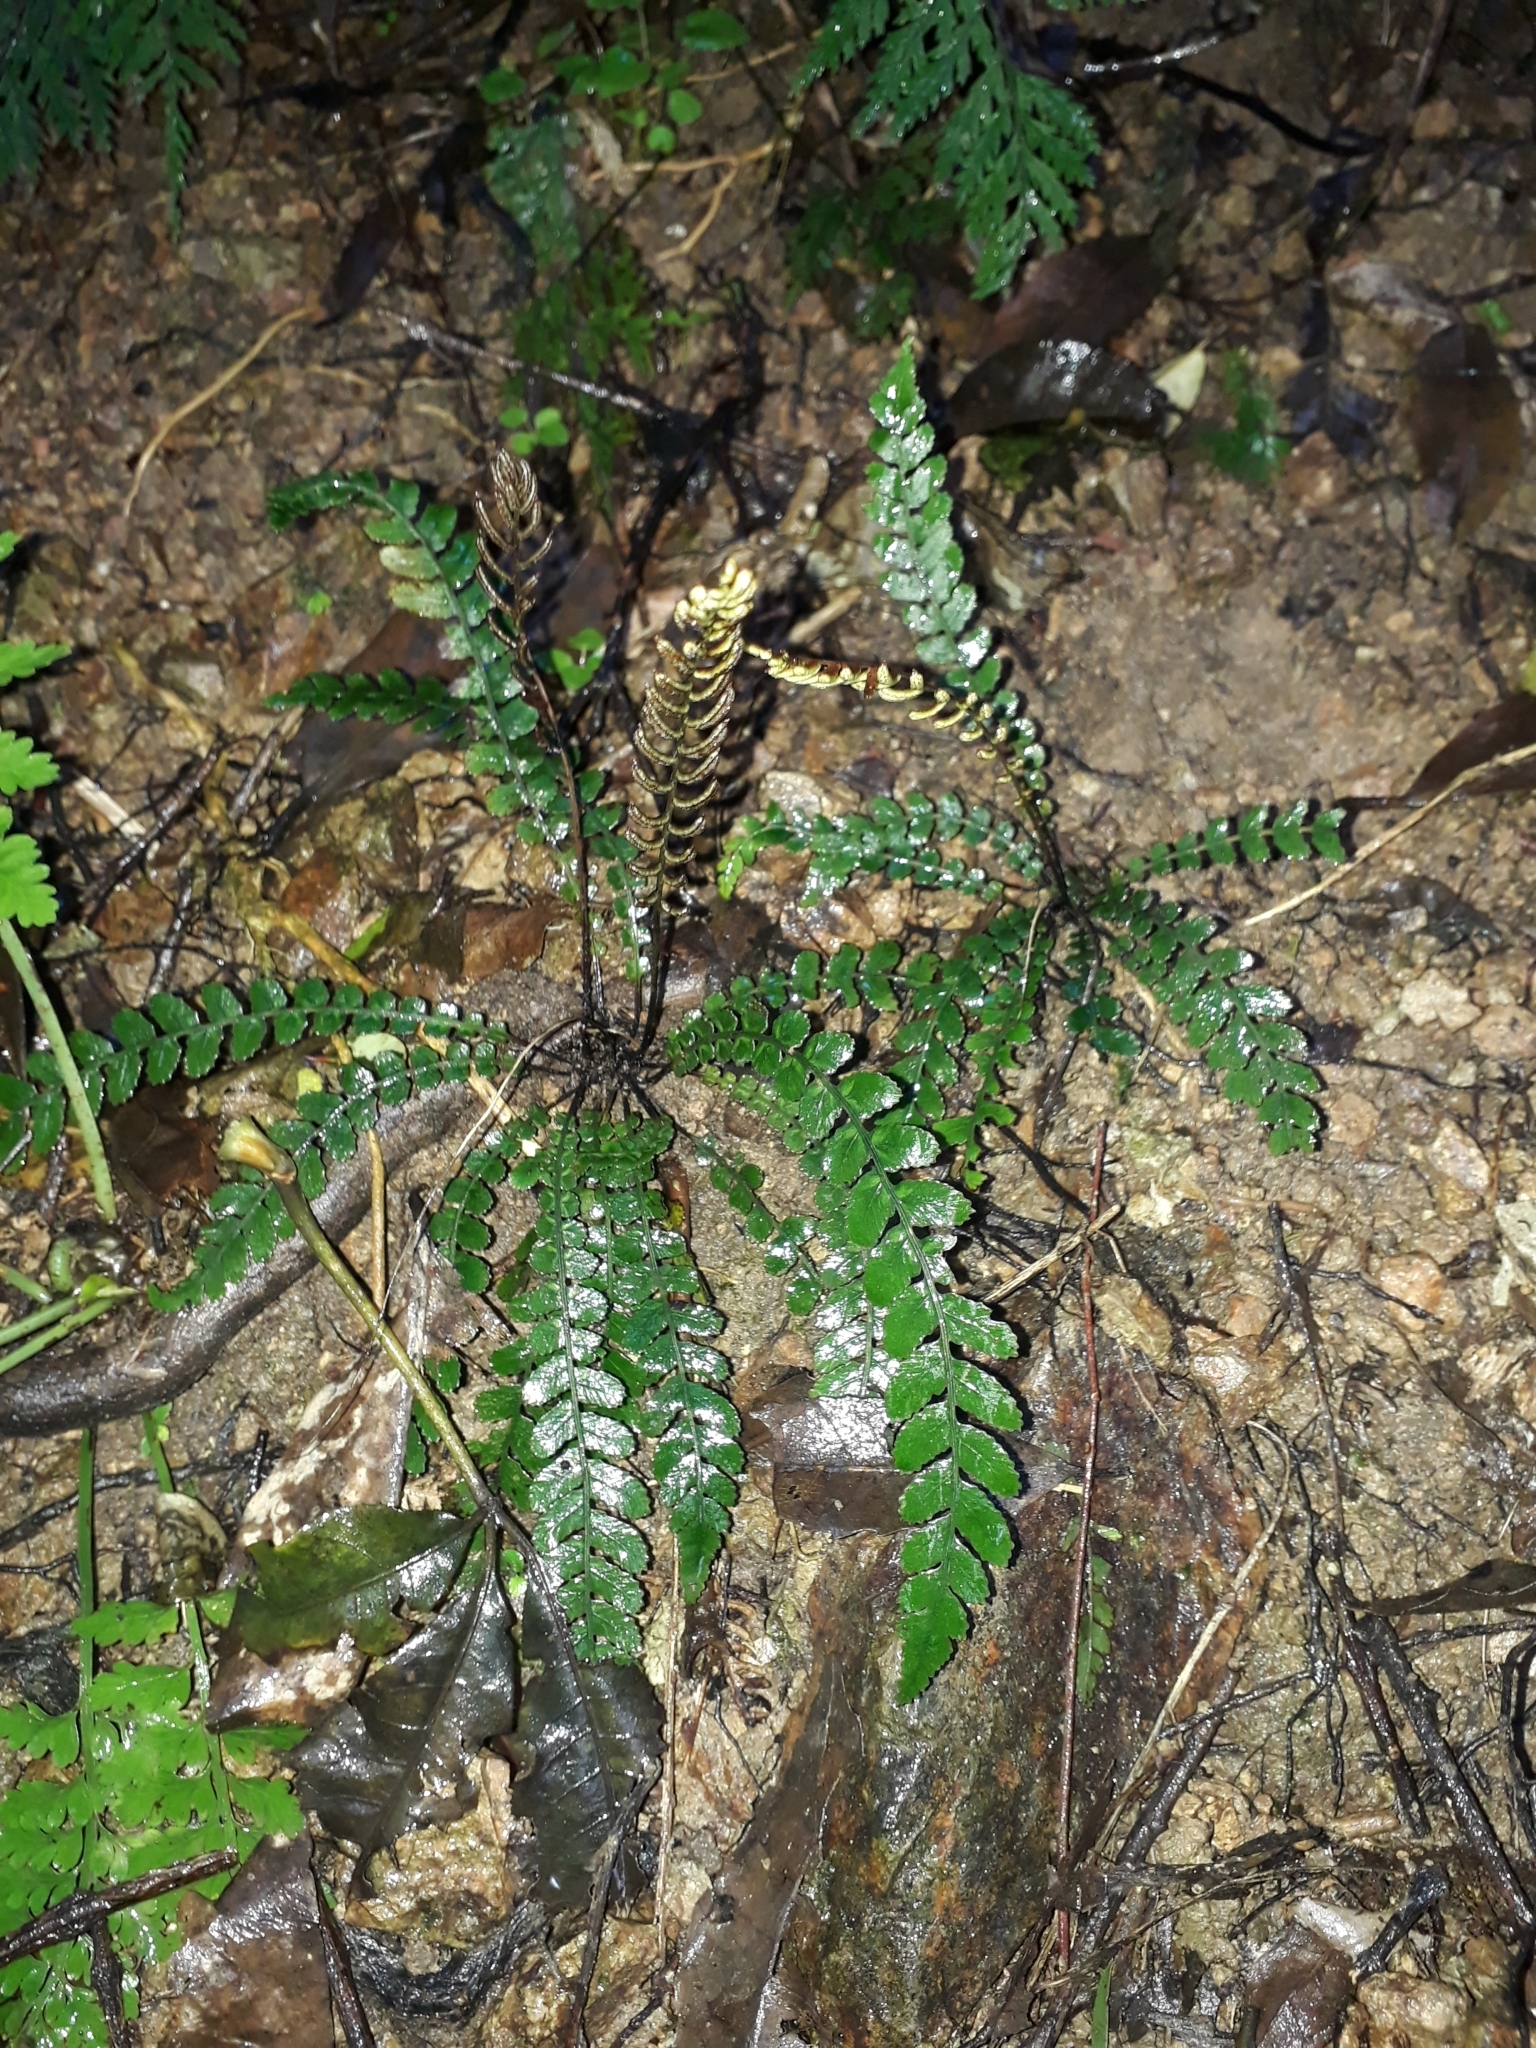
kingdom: Plantae
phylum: Tracheophyta
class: Polypodiopsida
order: Polypodiales
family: Blechnaceae
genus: Austroblechnum
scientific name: Austroblechnum membranaceum
